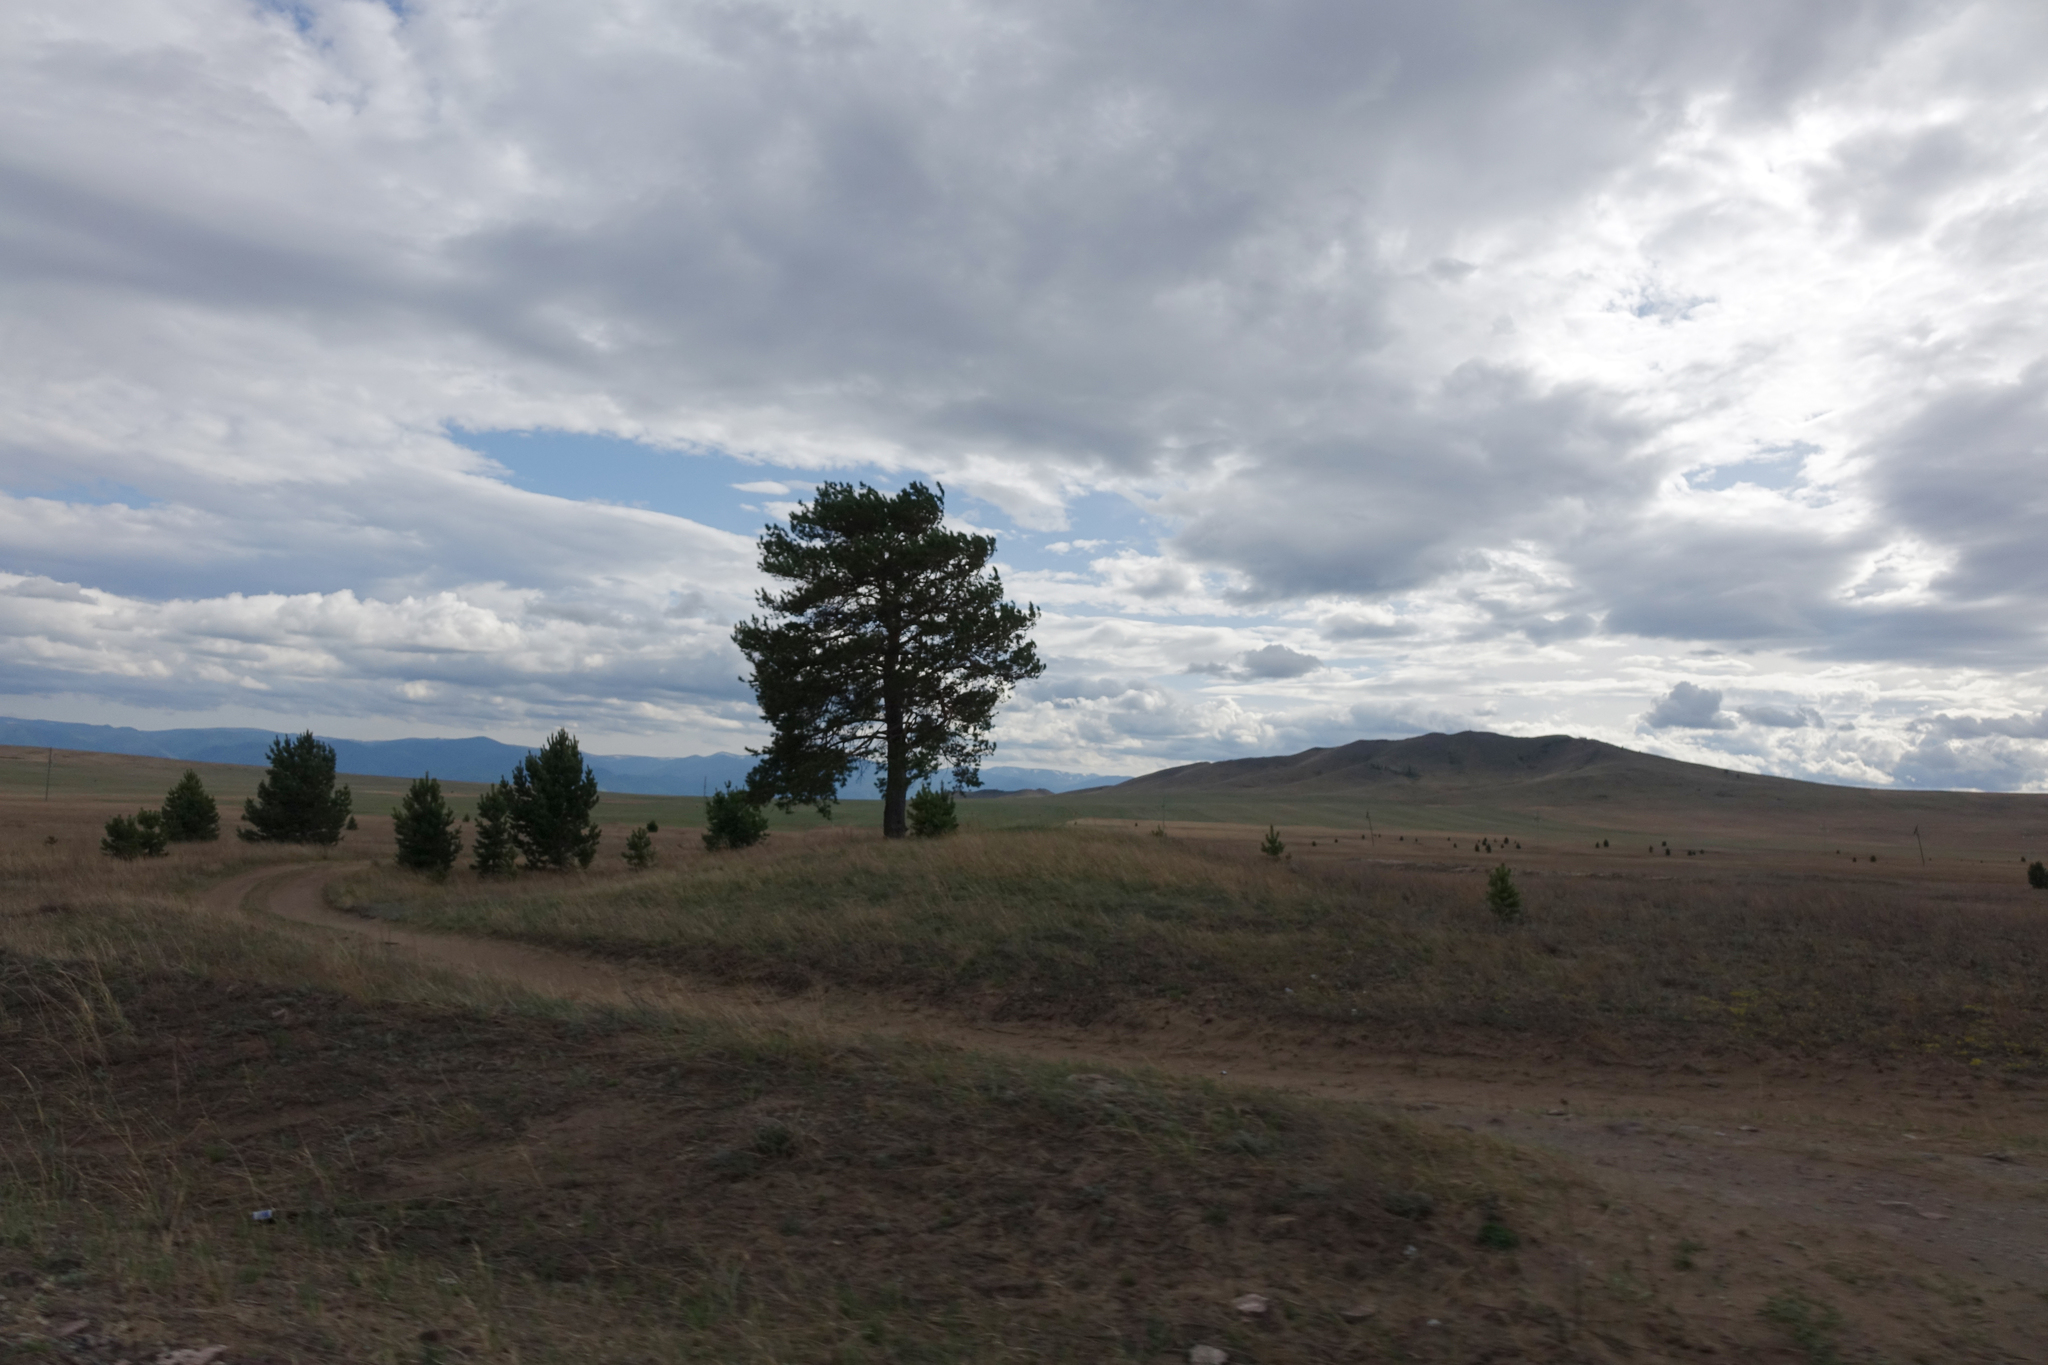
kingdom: Plantae
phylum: Tracheophyta
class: Pinopsida
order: Pinales
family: Pinaceae
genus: Pinus
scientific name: Pinus sylvestris
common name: Scots pine
